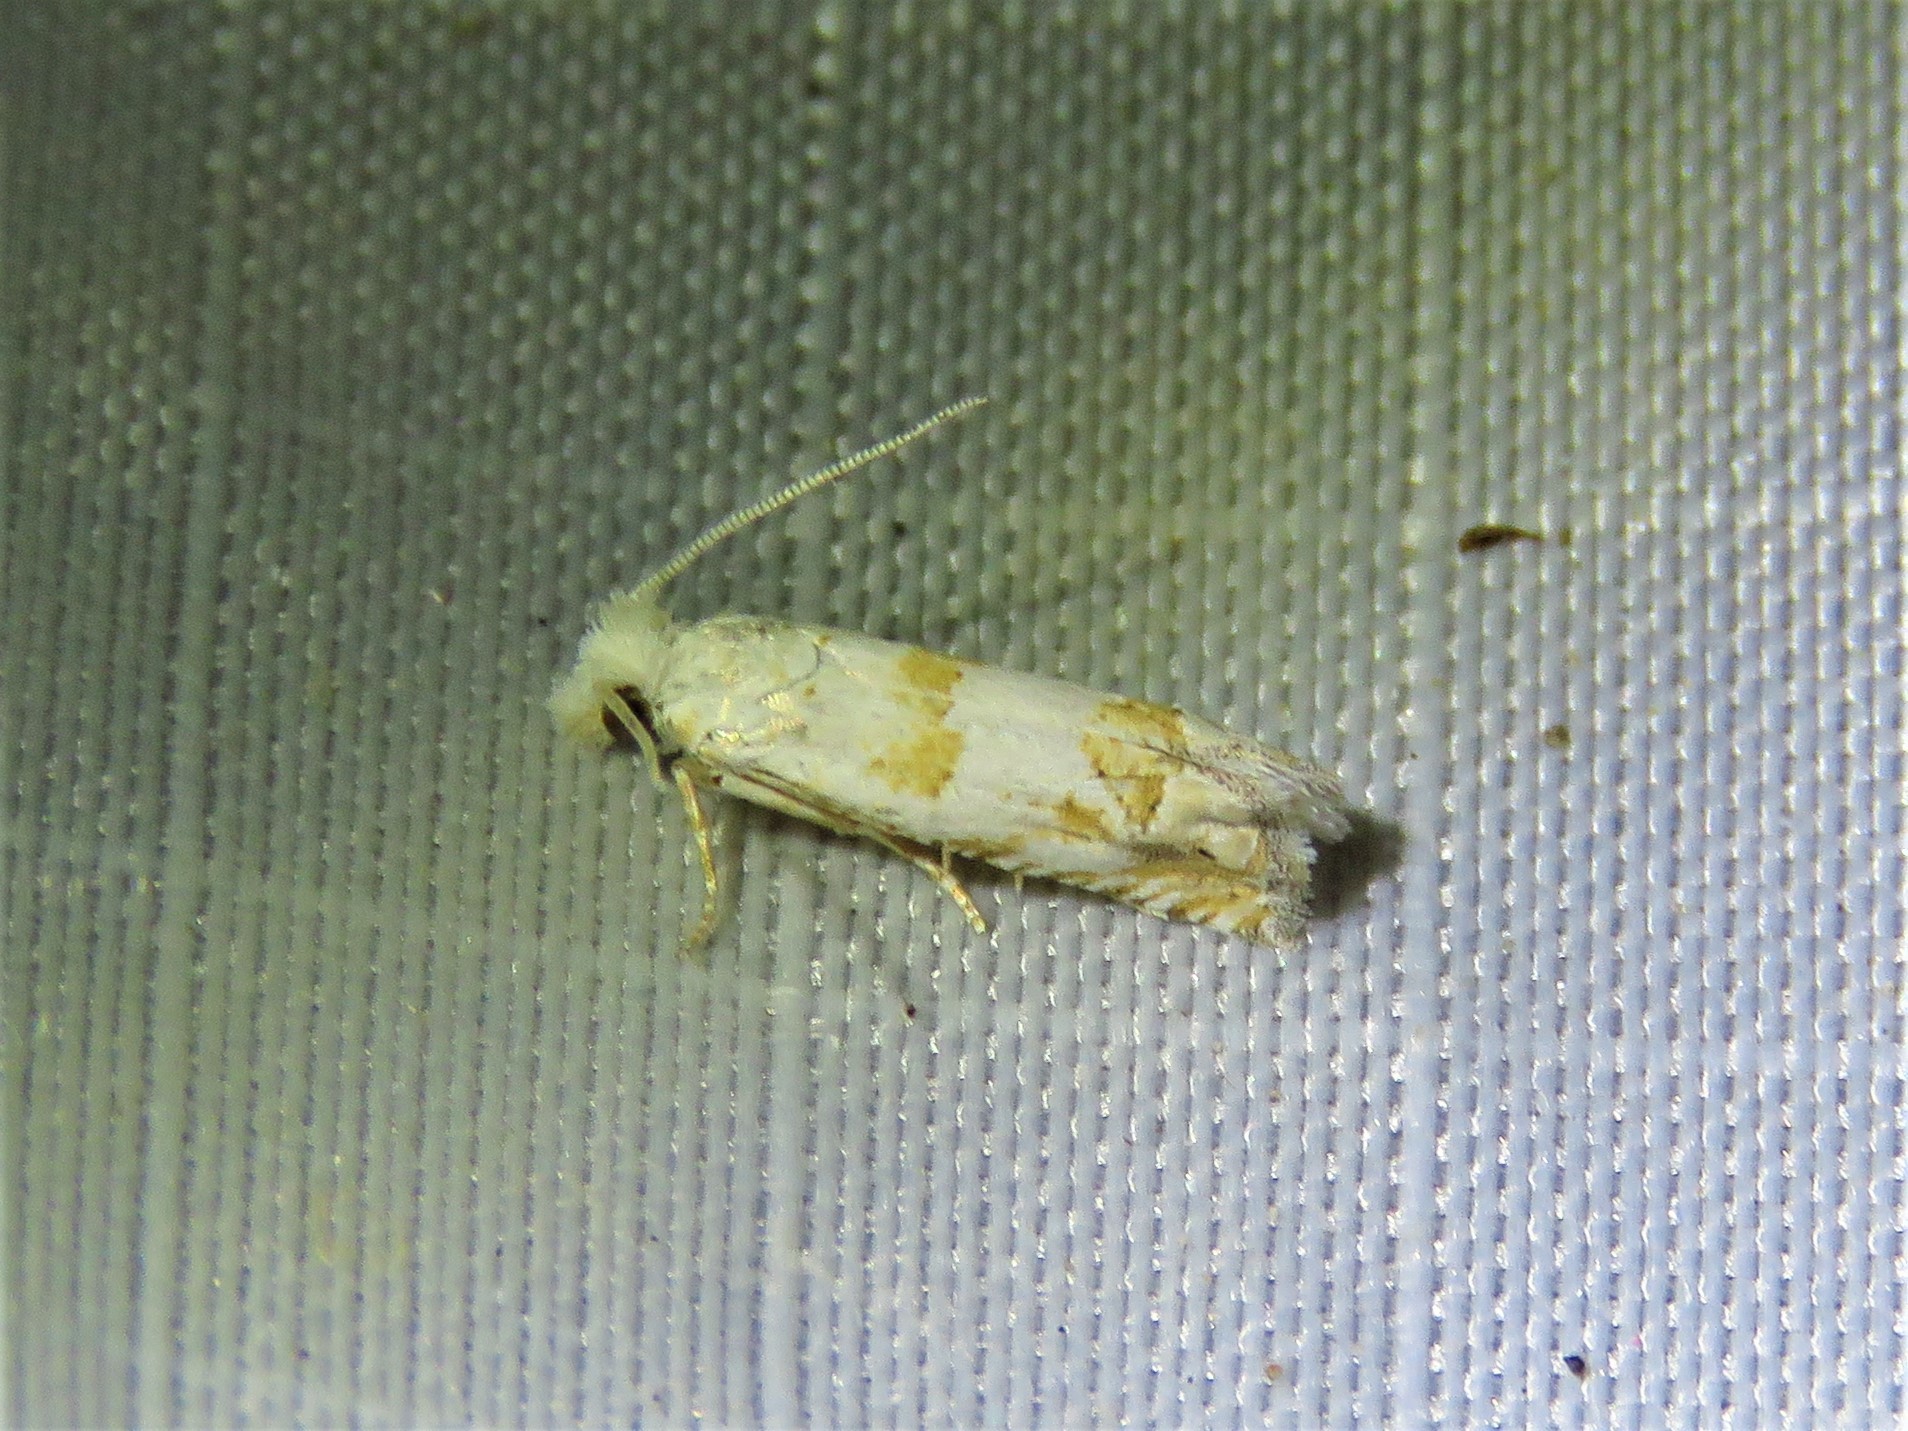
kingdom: Animalia
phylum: Arthropoda
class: Insecta
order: Lepidoptera
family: Tortricidae
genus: Pelochrista
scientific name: Pelochrista notialis
